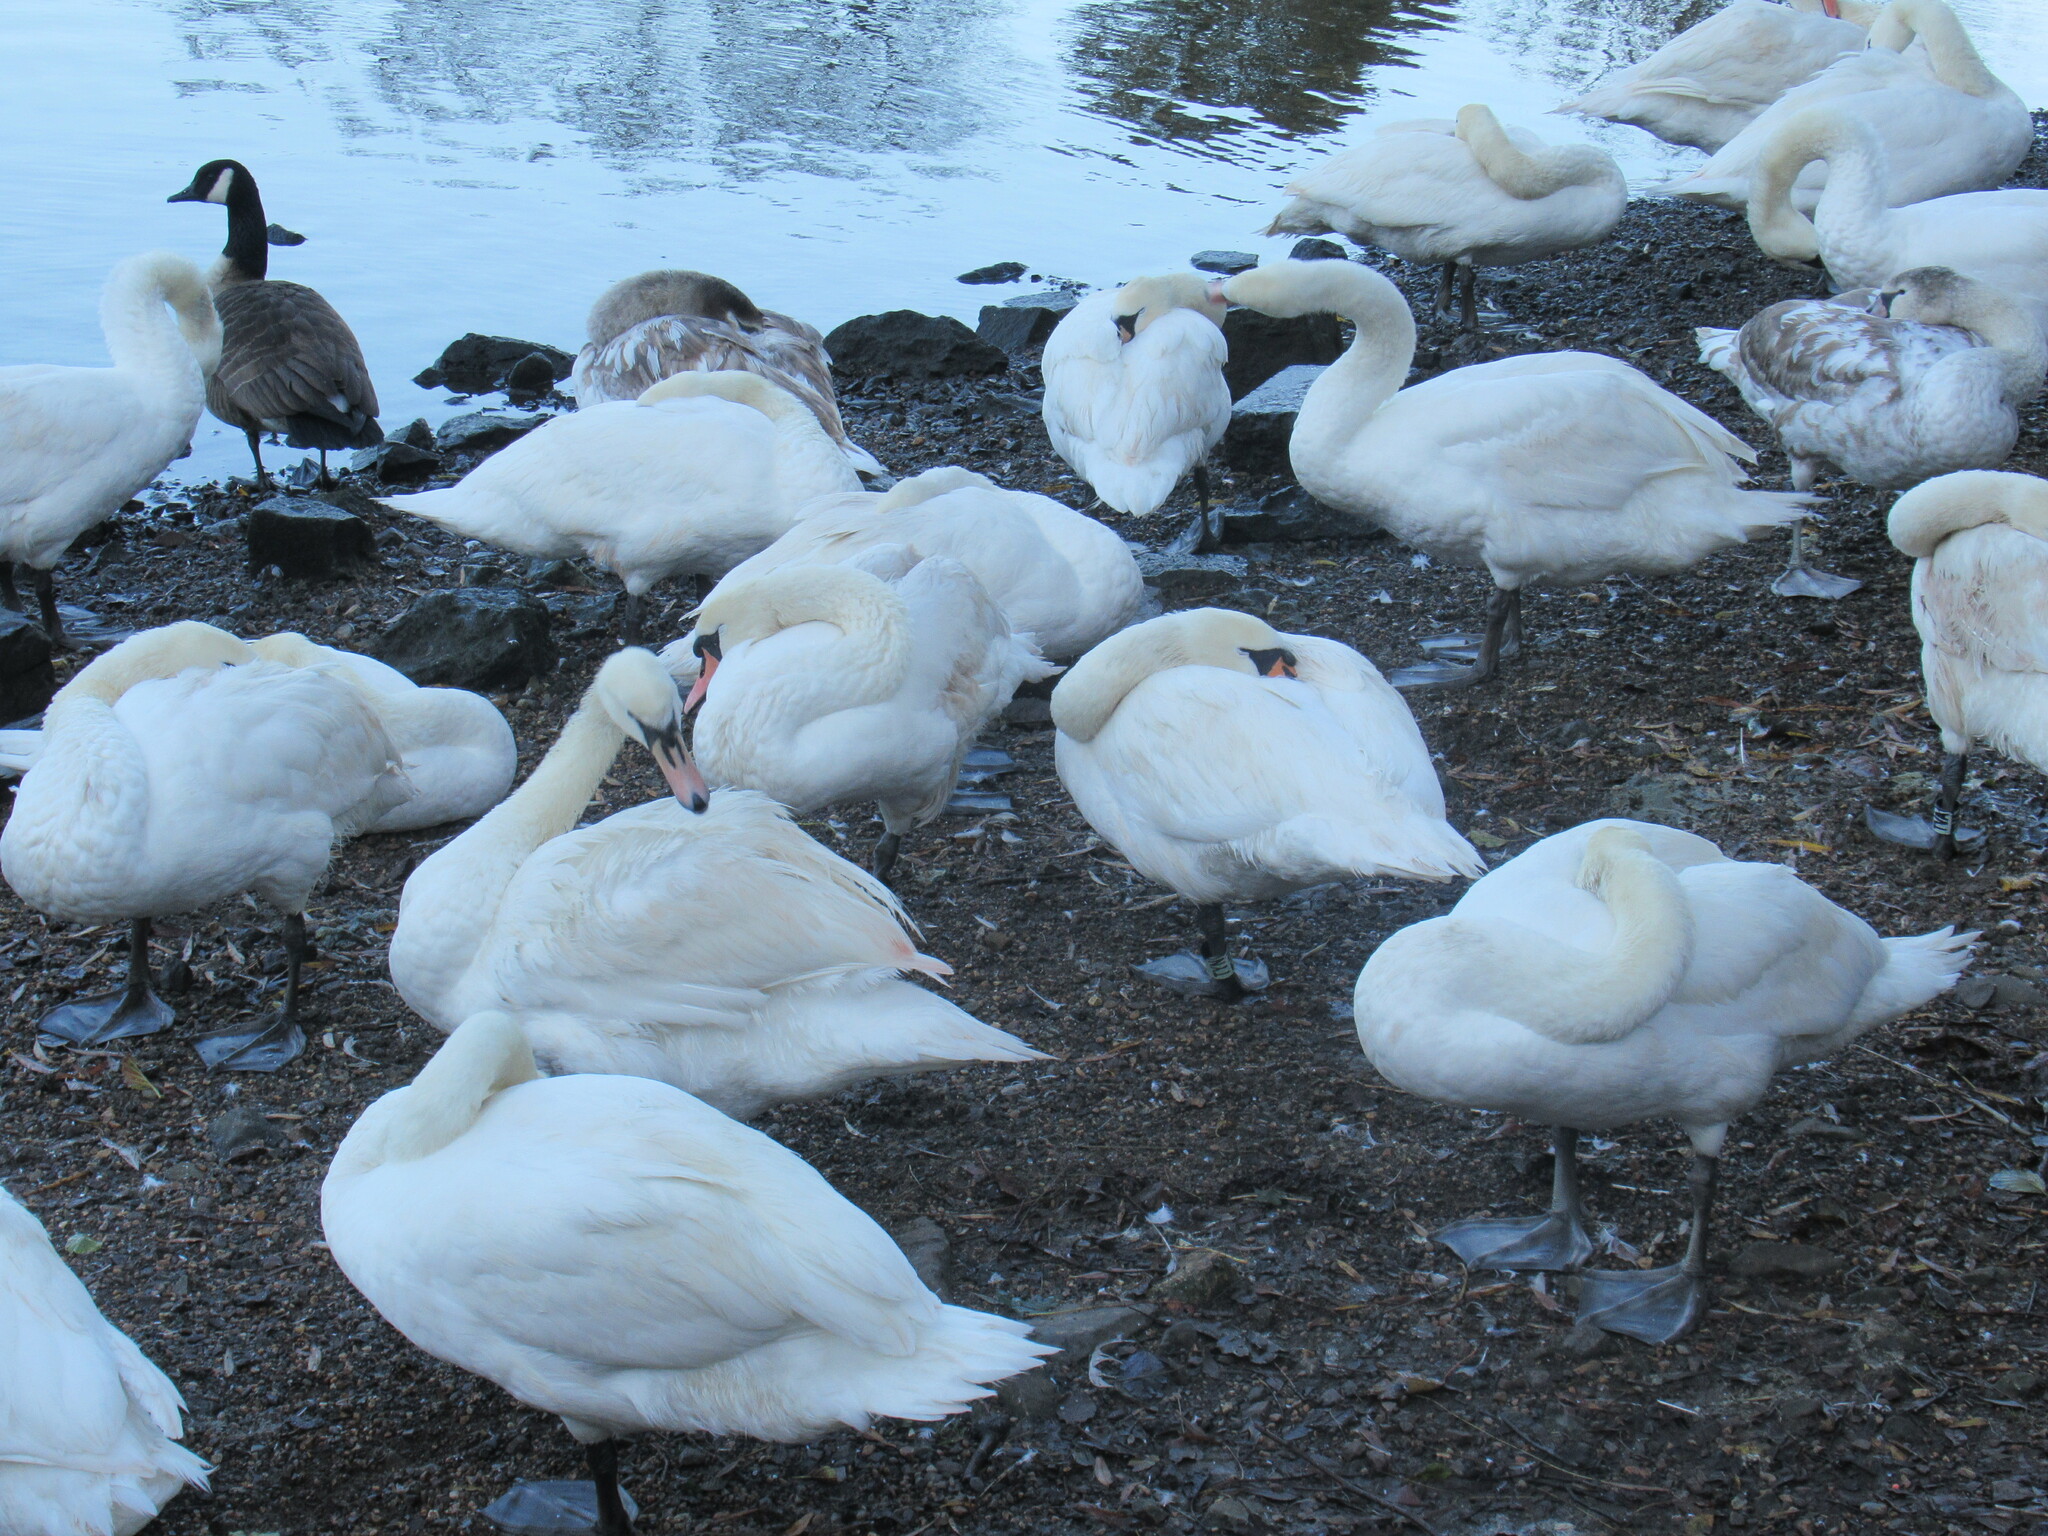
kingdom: Animalia
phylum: Chordata
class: Aves
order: Anseriformes
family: Anatidae
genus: Cygnus
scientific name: Cygnus olor
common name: Mute swan
